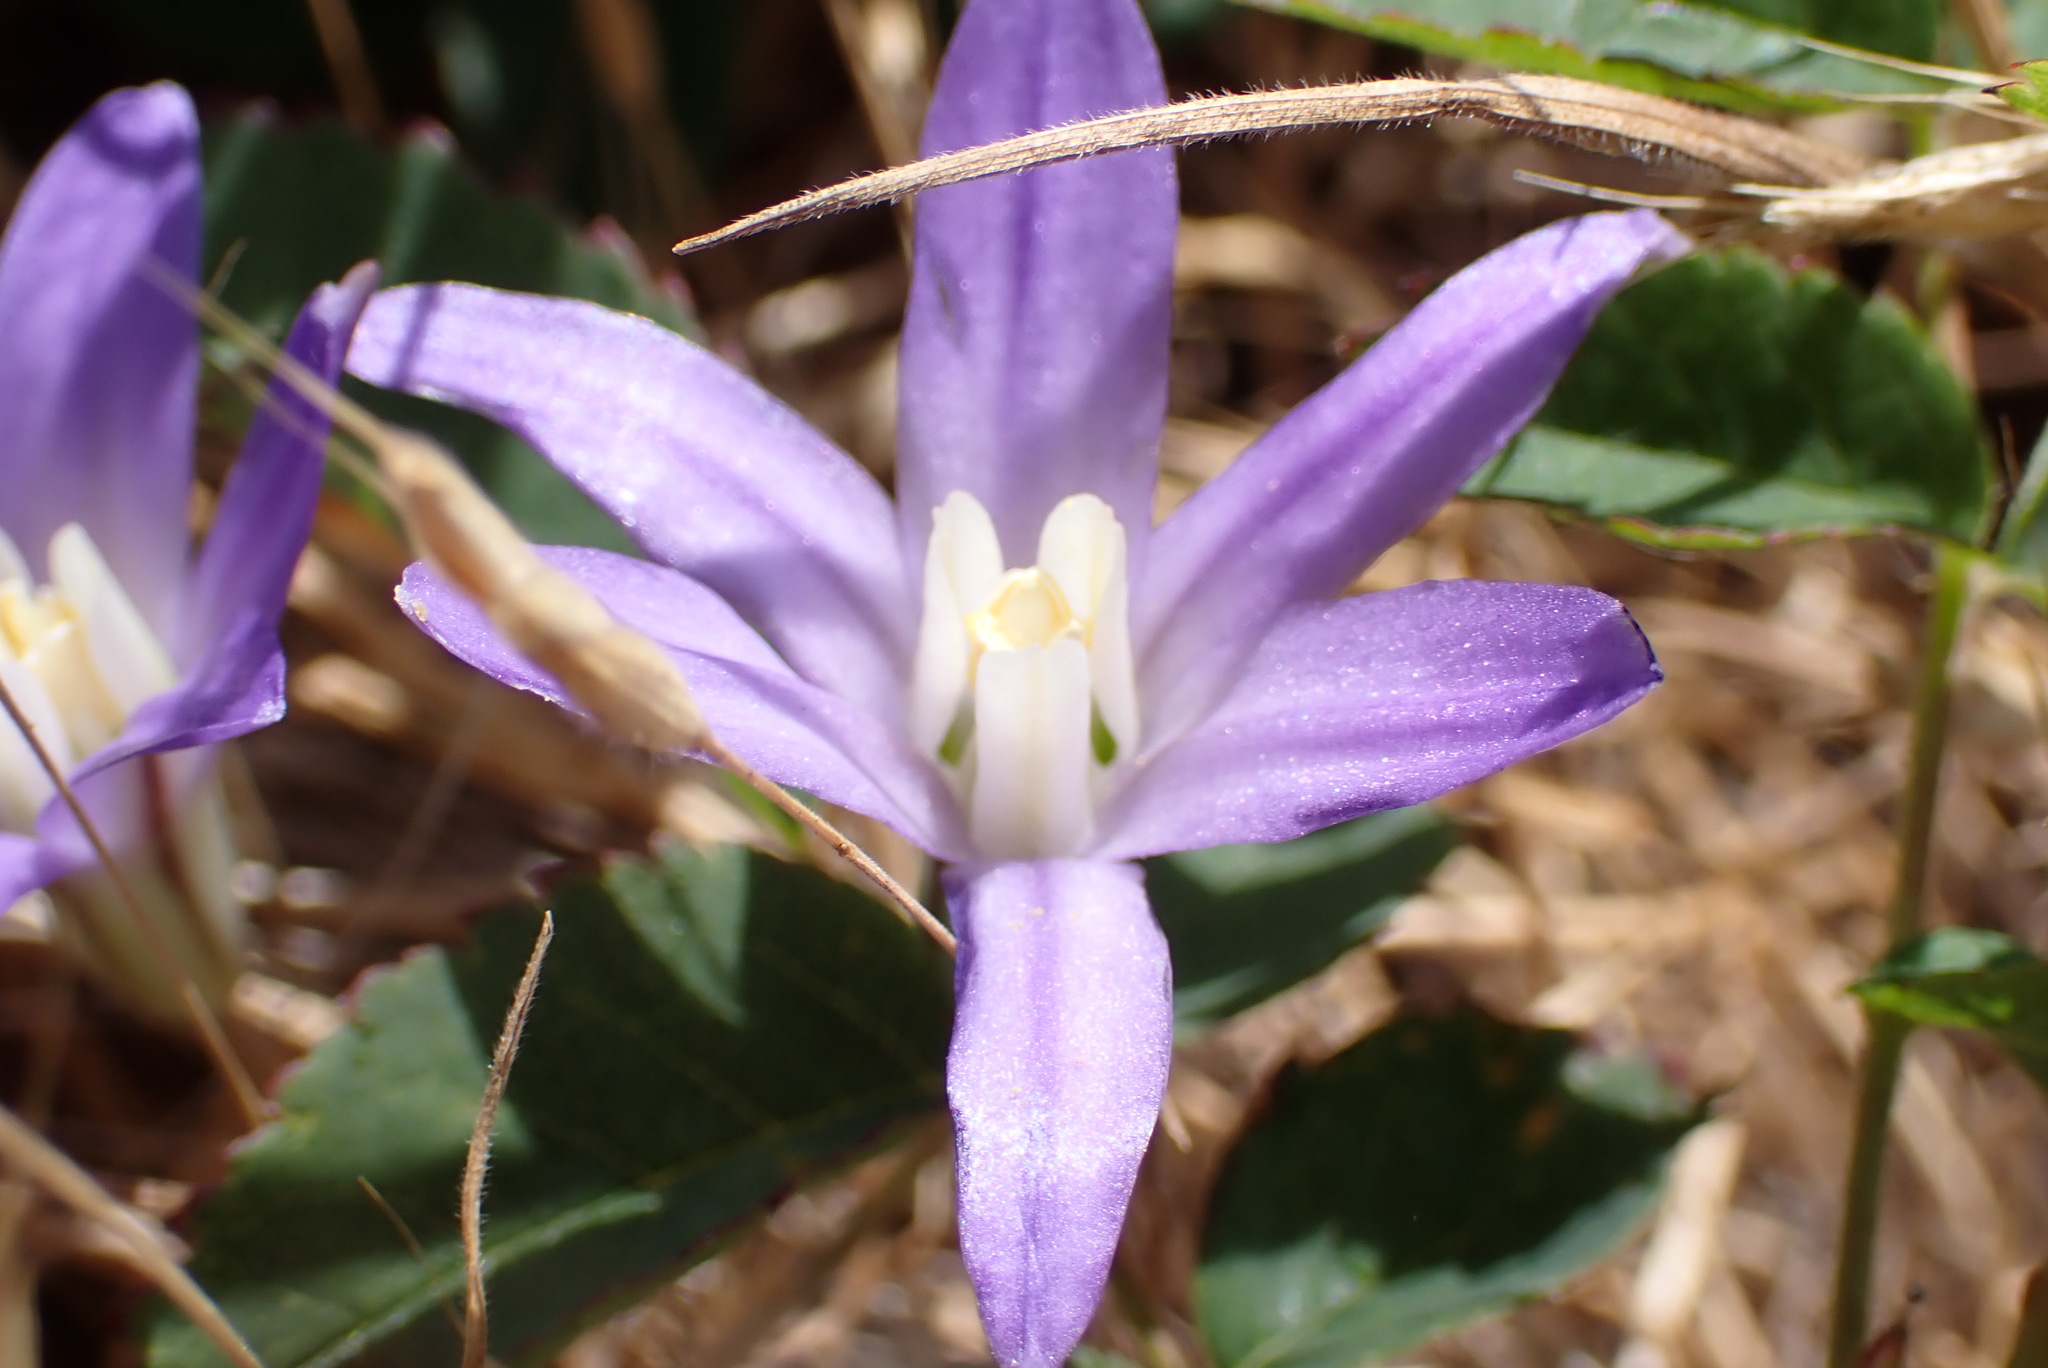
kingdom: Plantae
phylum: Tracheophyta
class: Liliopsida
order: Asparagales
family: Asparagaceae
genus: Brodiaea
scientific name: Brodiaea coronaria
